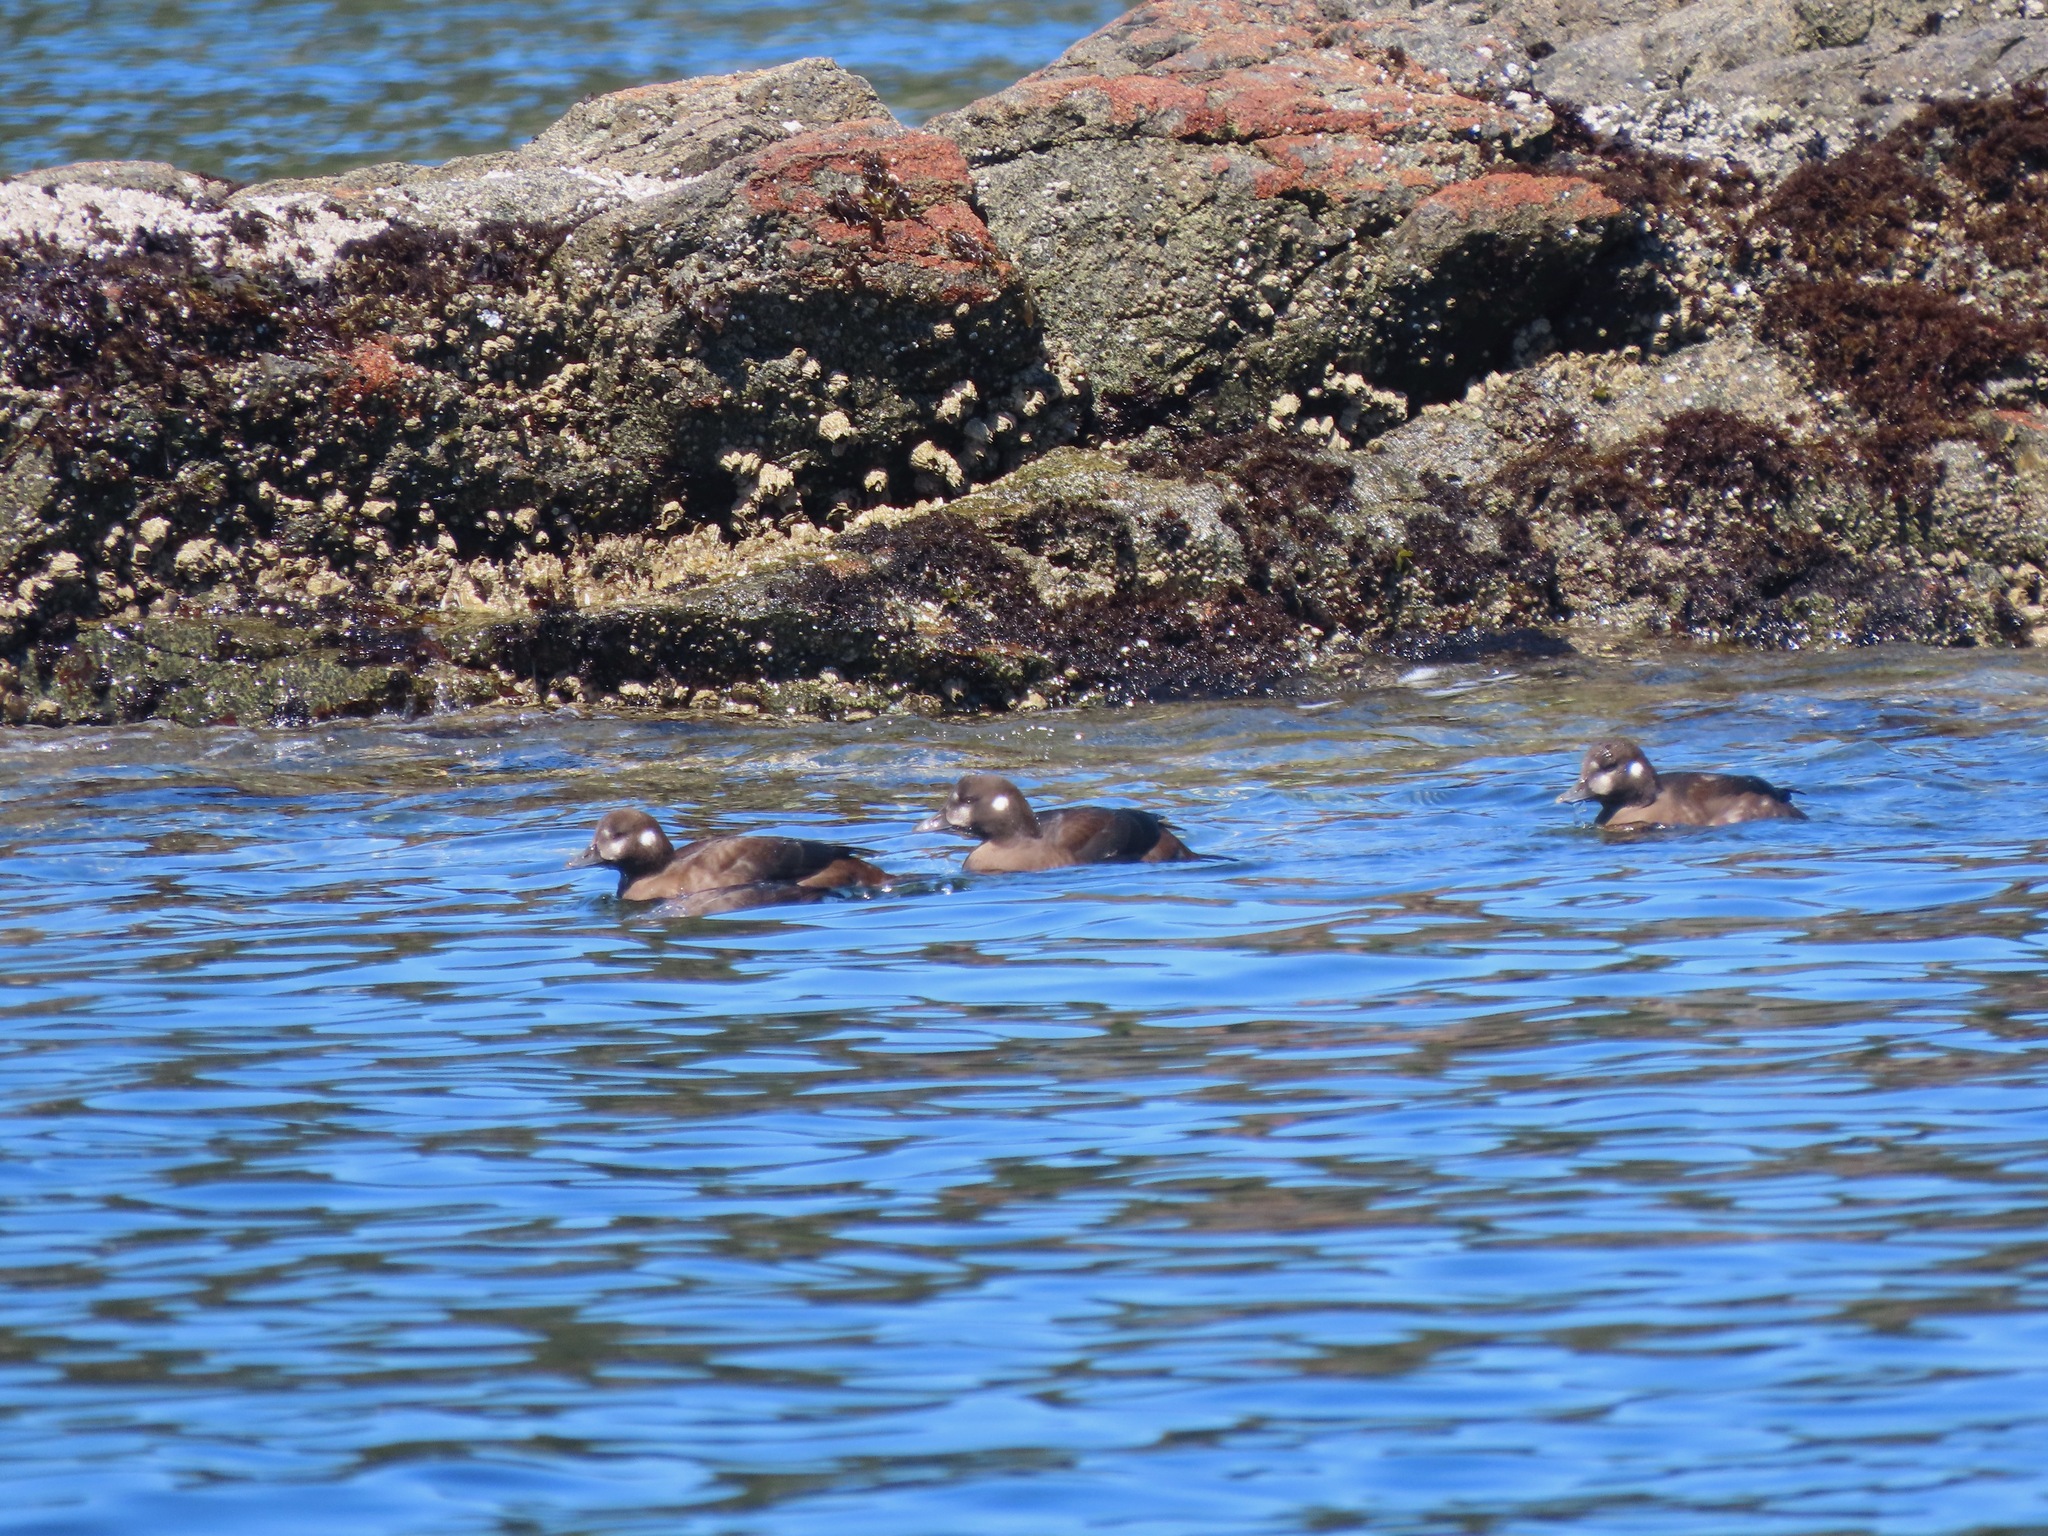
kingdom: Animalia
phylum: Chordata
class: Aves
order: Anseriformes
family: Anatidae
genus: Histrionicus
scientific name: Histrionicus histrionicus
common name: Harlequin duck
